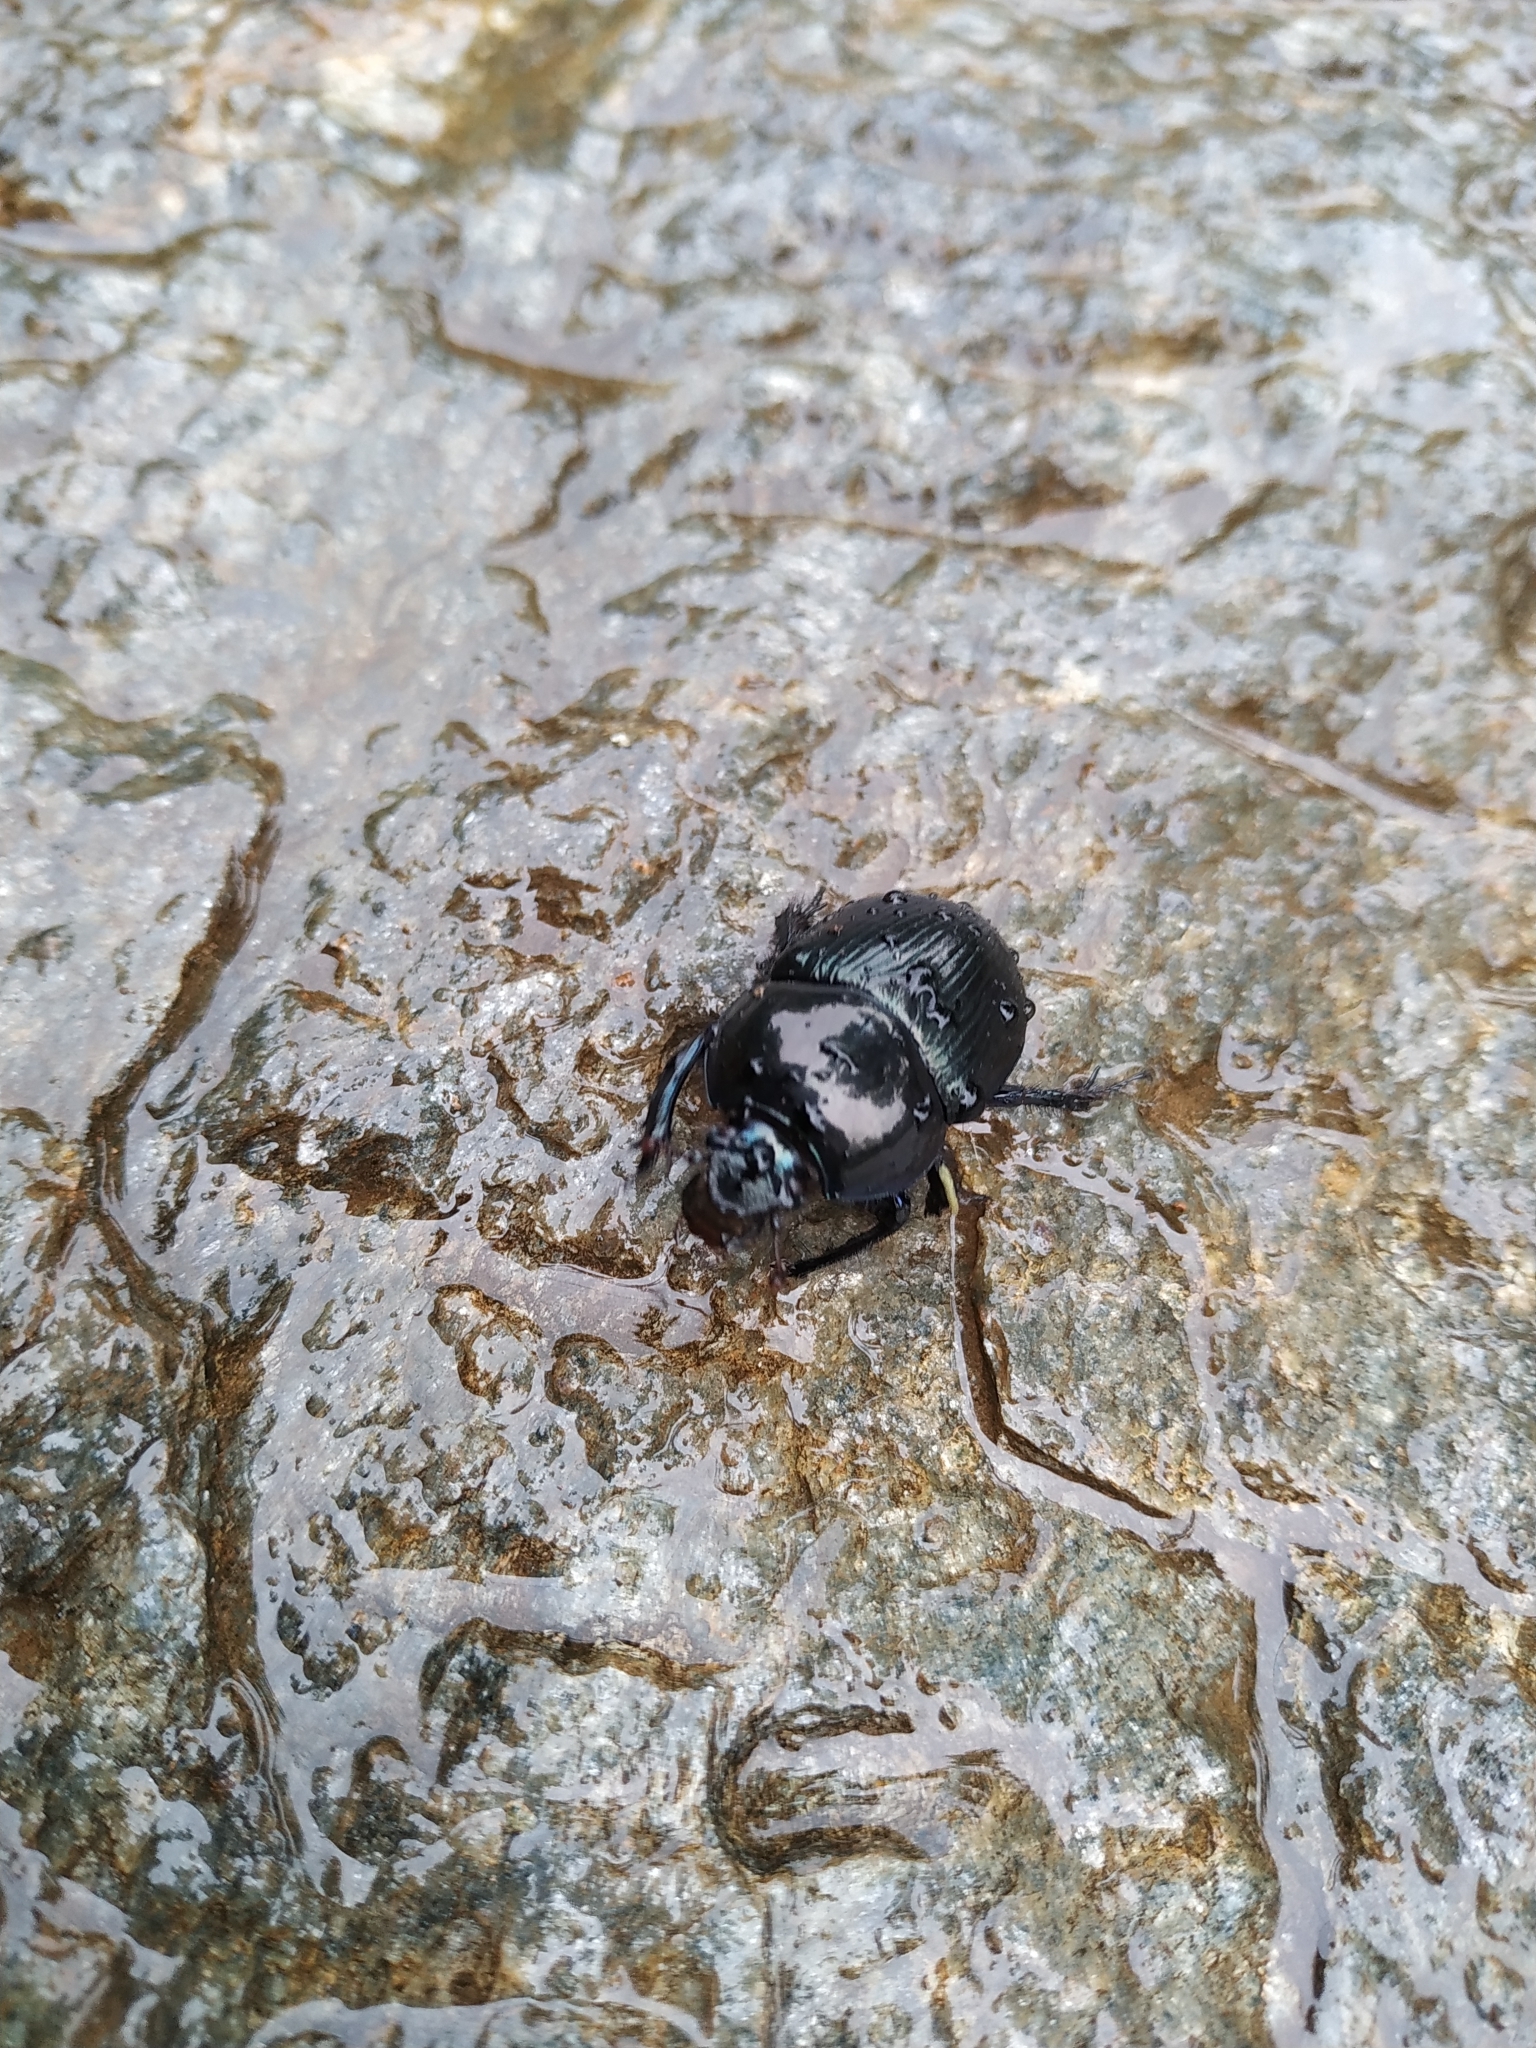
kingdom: Animalia
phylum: Arthropoda
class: Insecta
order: Coleoptera
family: Geotrupidae
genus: Anoplotrupes
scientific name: Anoplotrupes stercorosus
